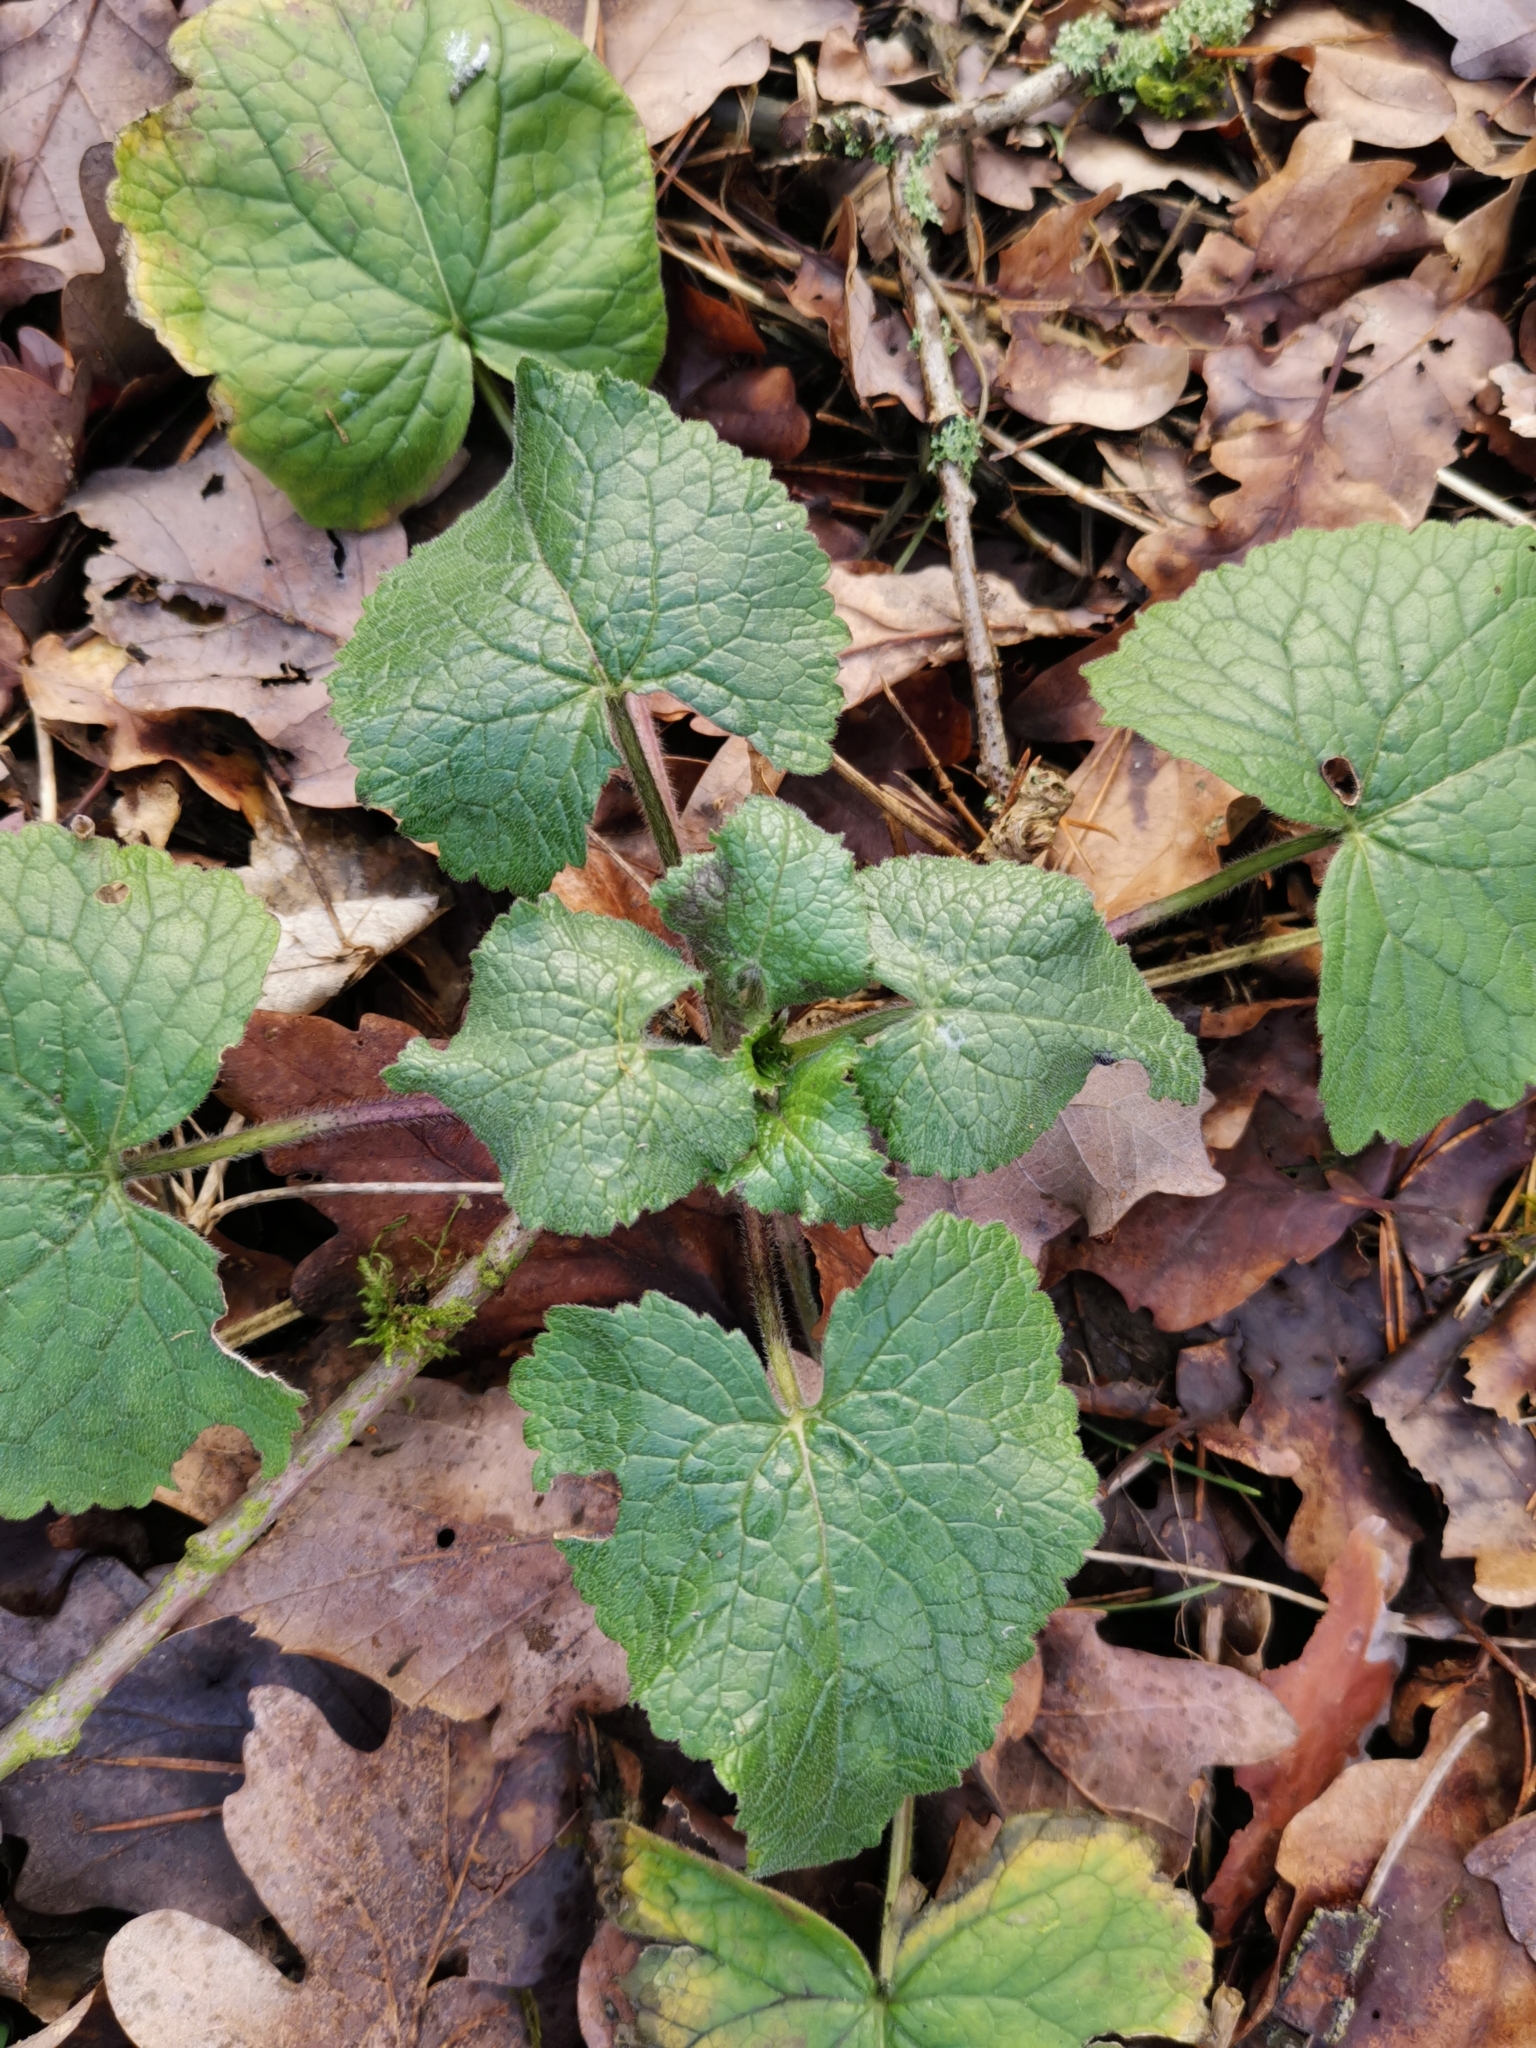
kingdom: Plantae
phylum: Tracheophyta
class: Magnoliopsida
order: Brassicales
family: Brassicaceae
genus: Lunaria
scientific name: Lunaria annua
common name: Honesty
